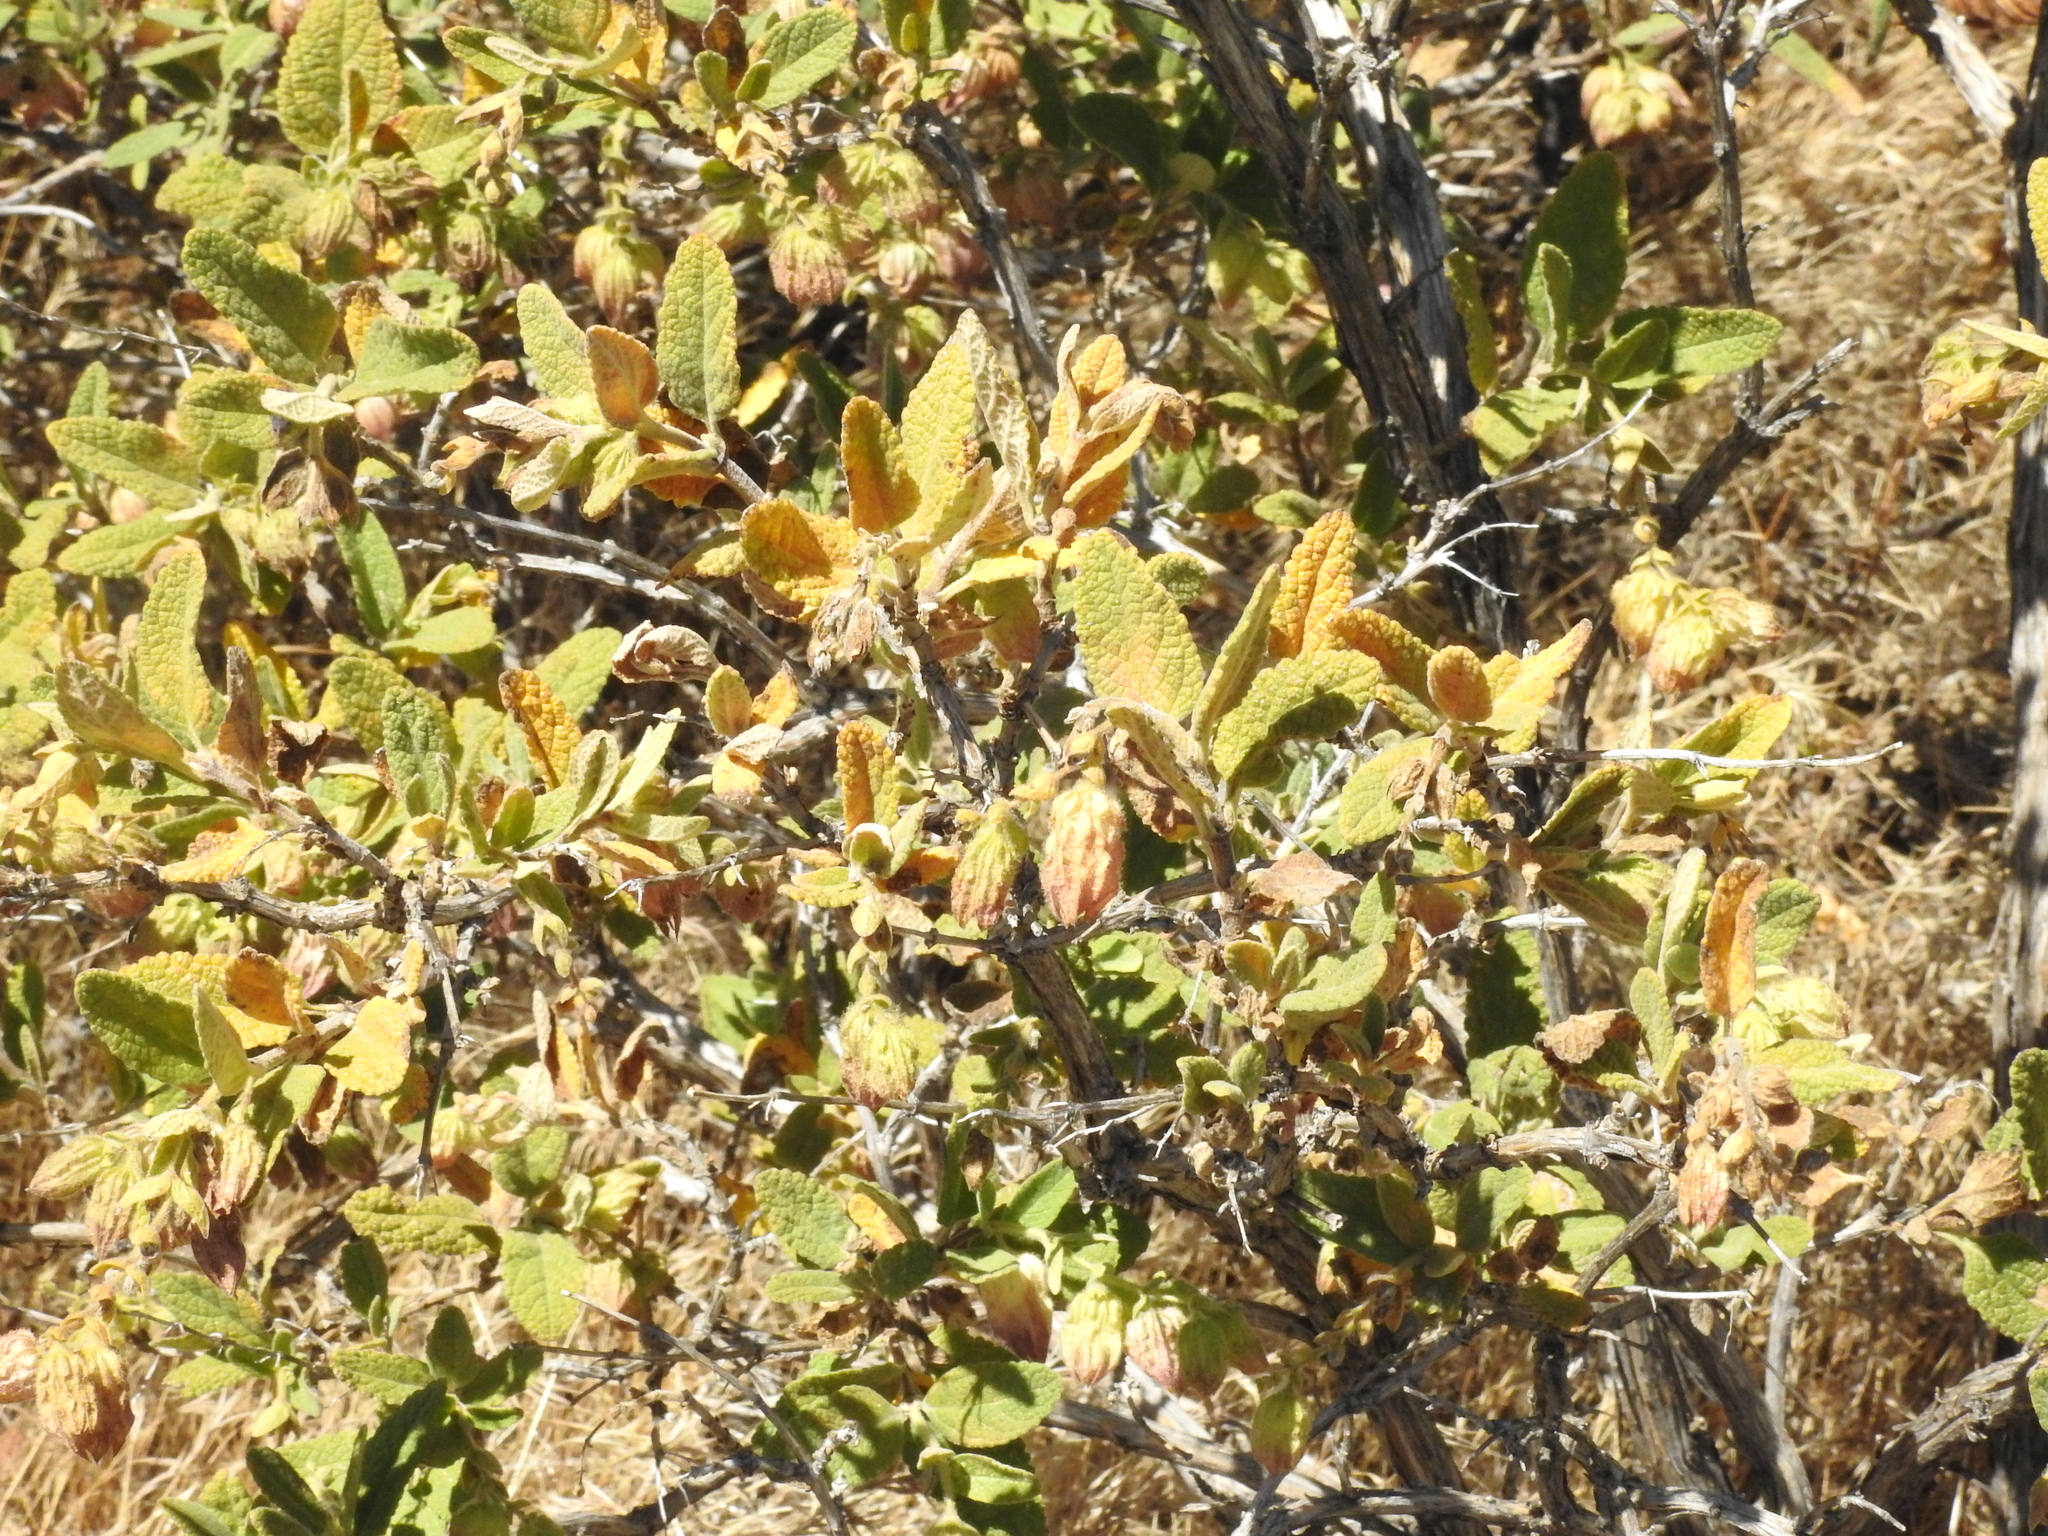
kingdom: Plantae
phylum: Tracheophyta
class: Magnoliopsida
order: Lamiales
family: Lamiaceae
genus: Lepechinia
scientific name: Lepechinia calycina
